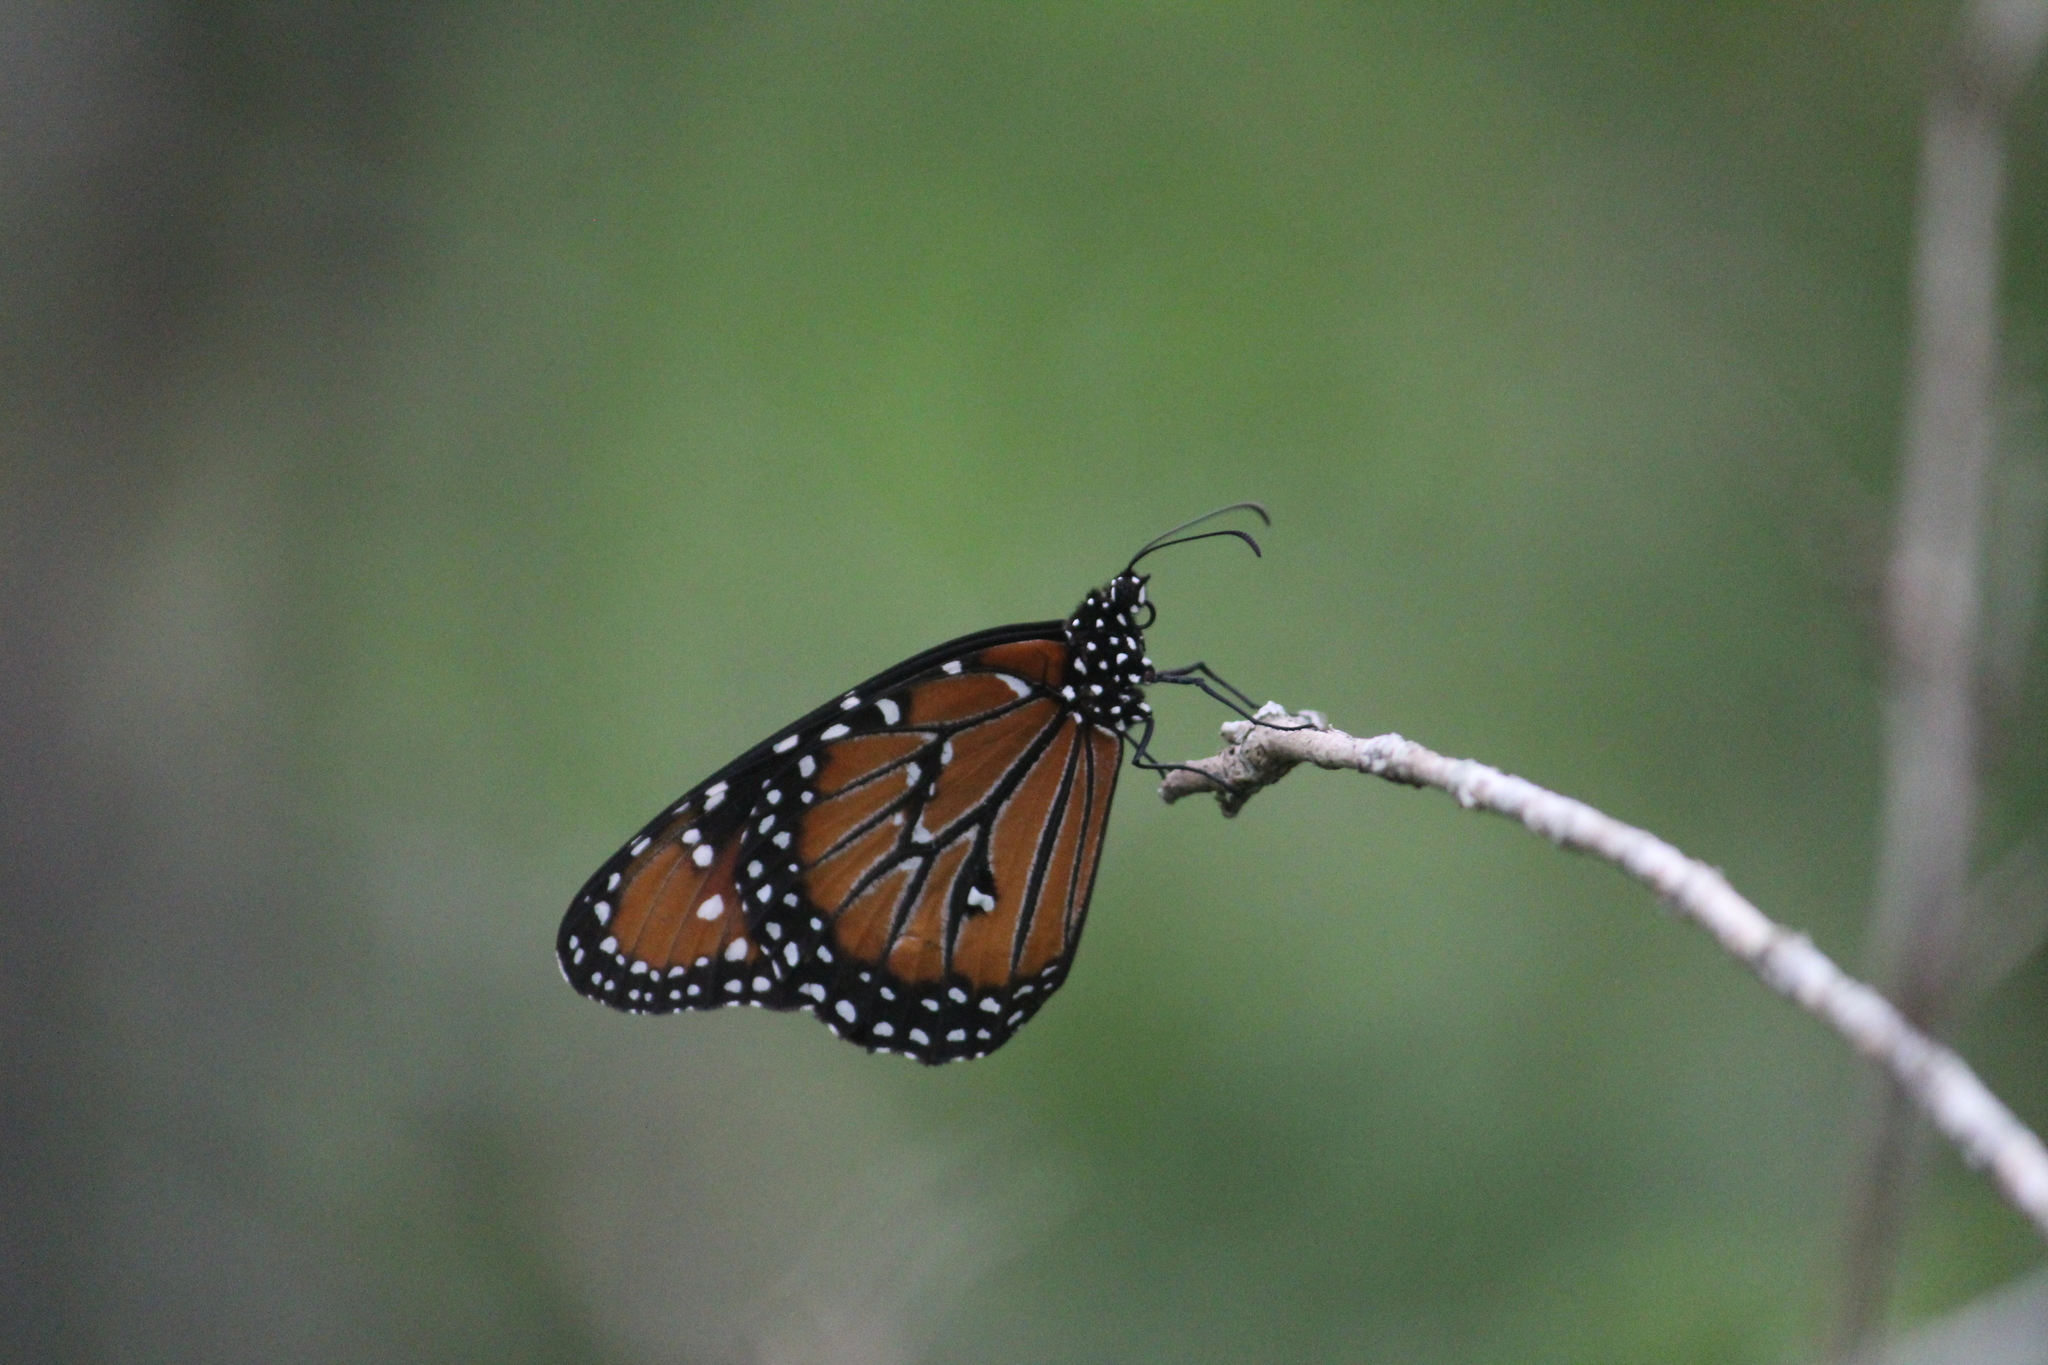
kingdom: Animalia
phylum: Arthropoda
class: Insecta
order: Lepidoptera
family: Nymphalidae
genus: Danaus
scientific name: Danaus gilippus
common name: Queen
